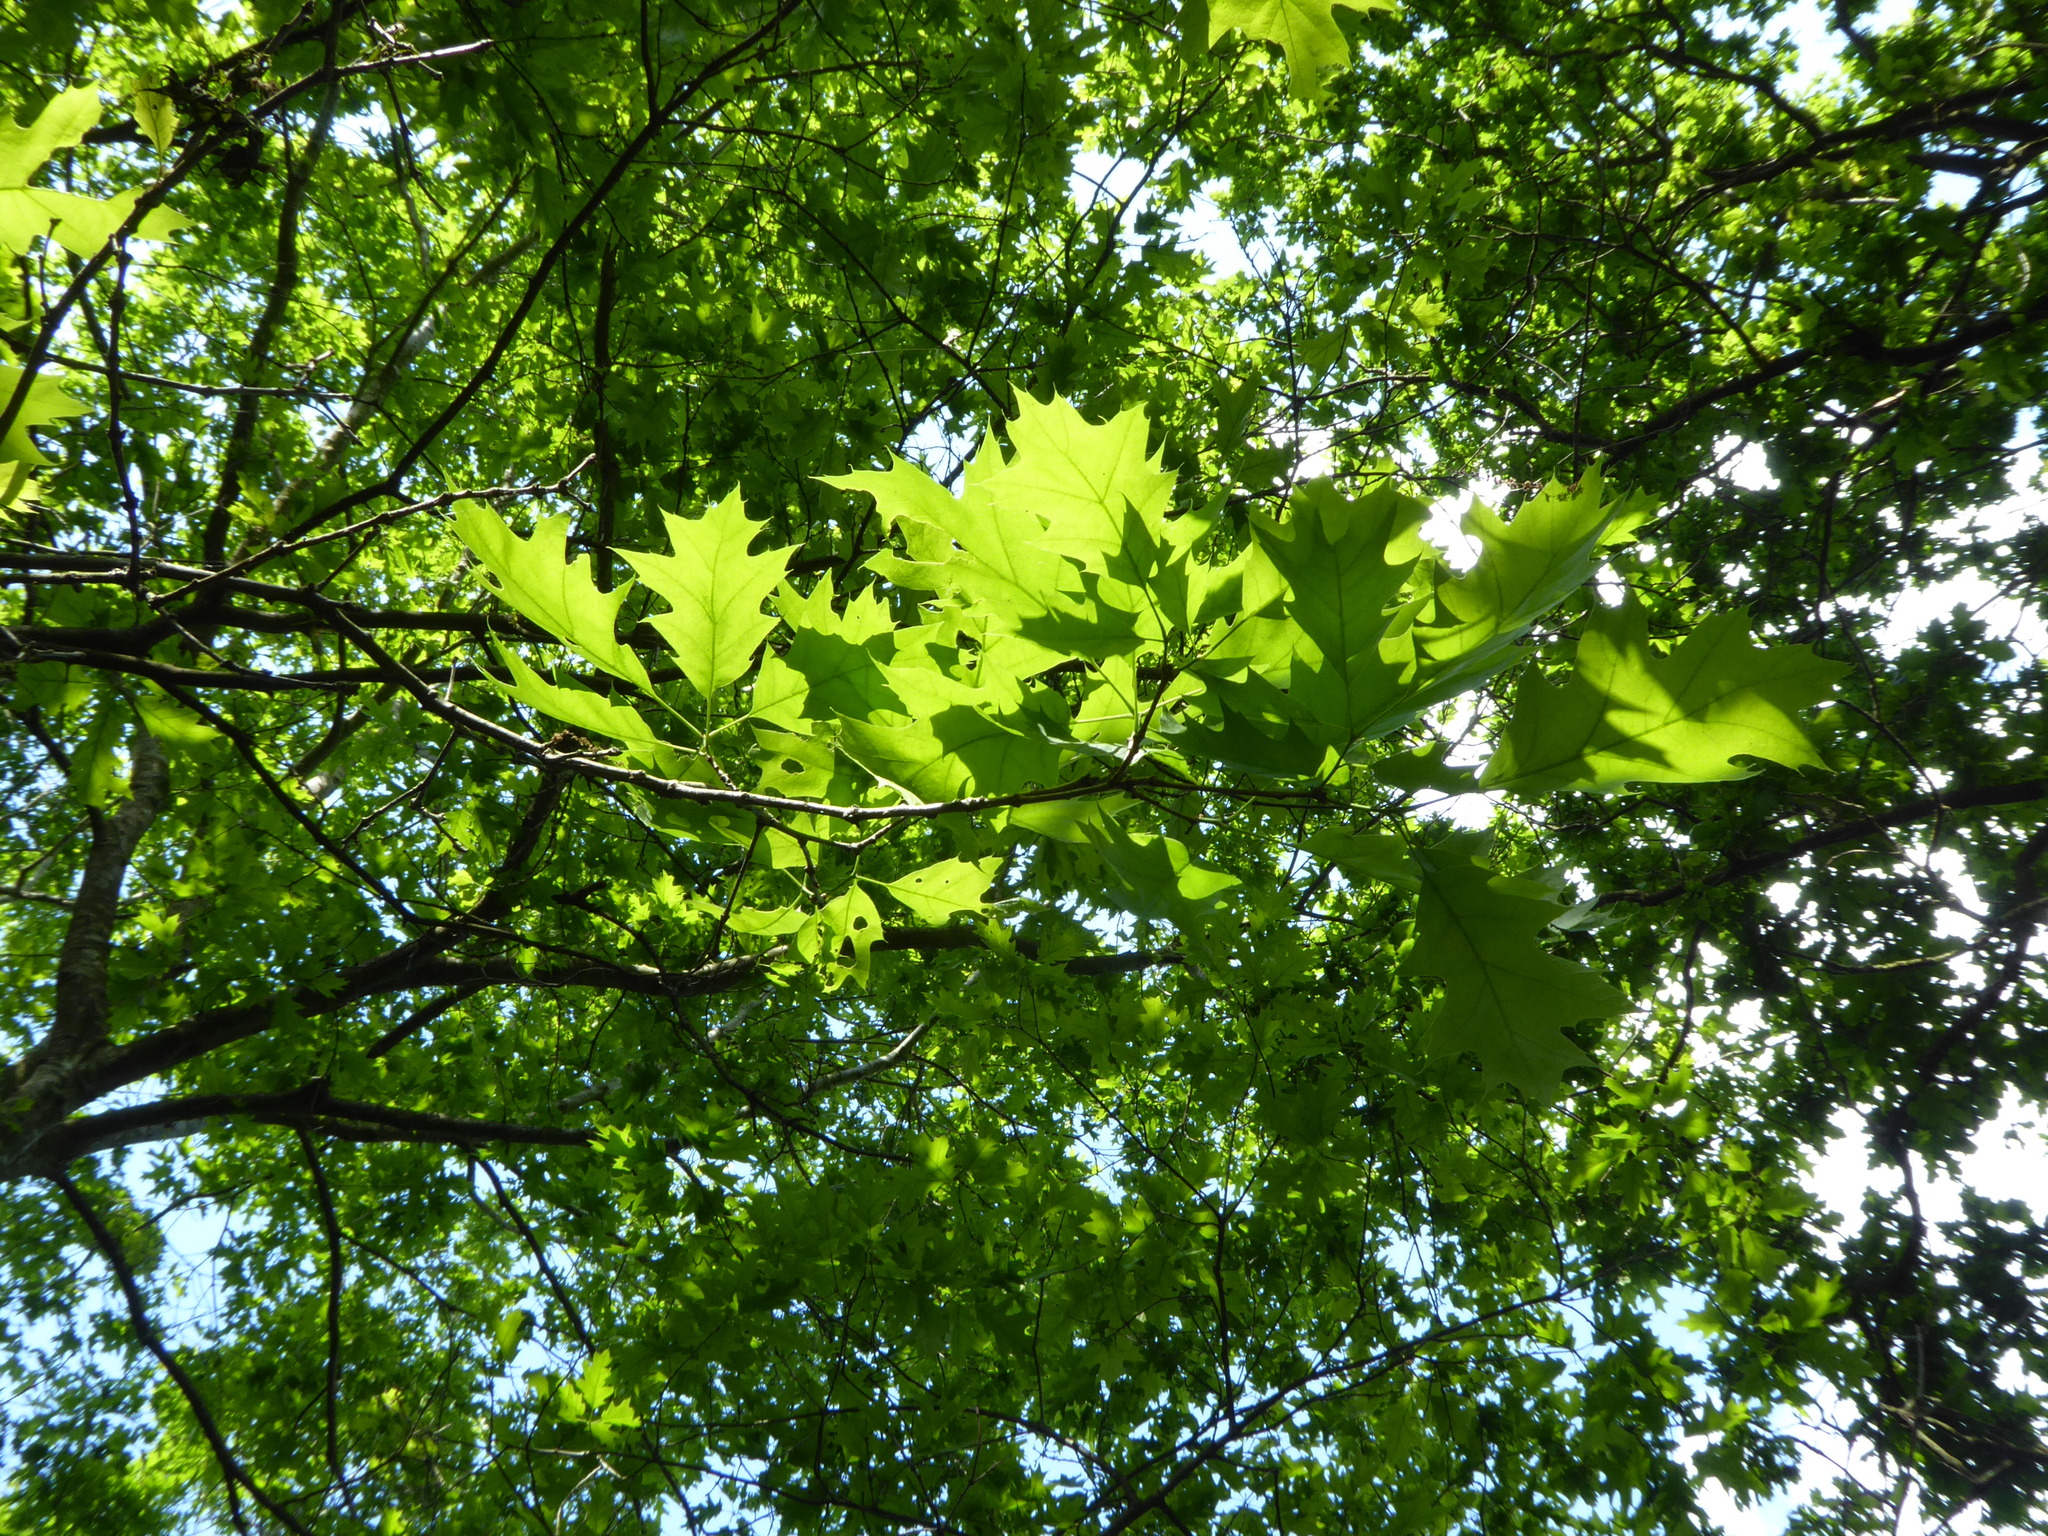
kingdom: Plantae
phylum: Tracheophyta
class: Magnoliopsida
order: Fagales
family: Fagaceae
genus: Quercus
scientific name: Quercus rubra
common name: Red oak
